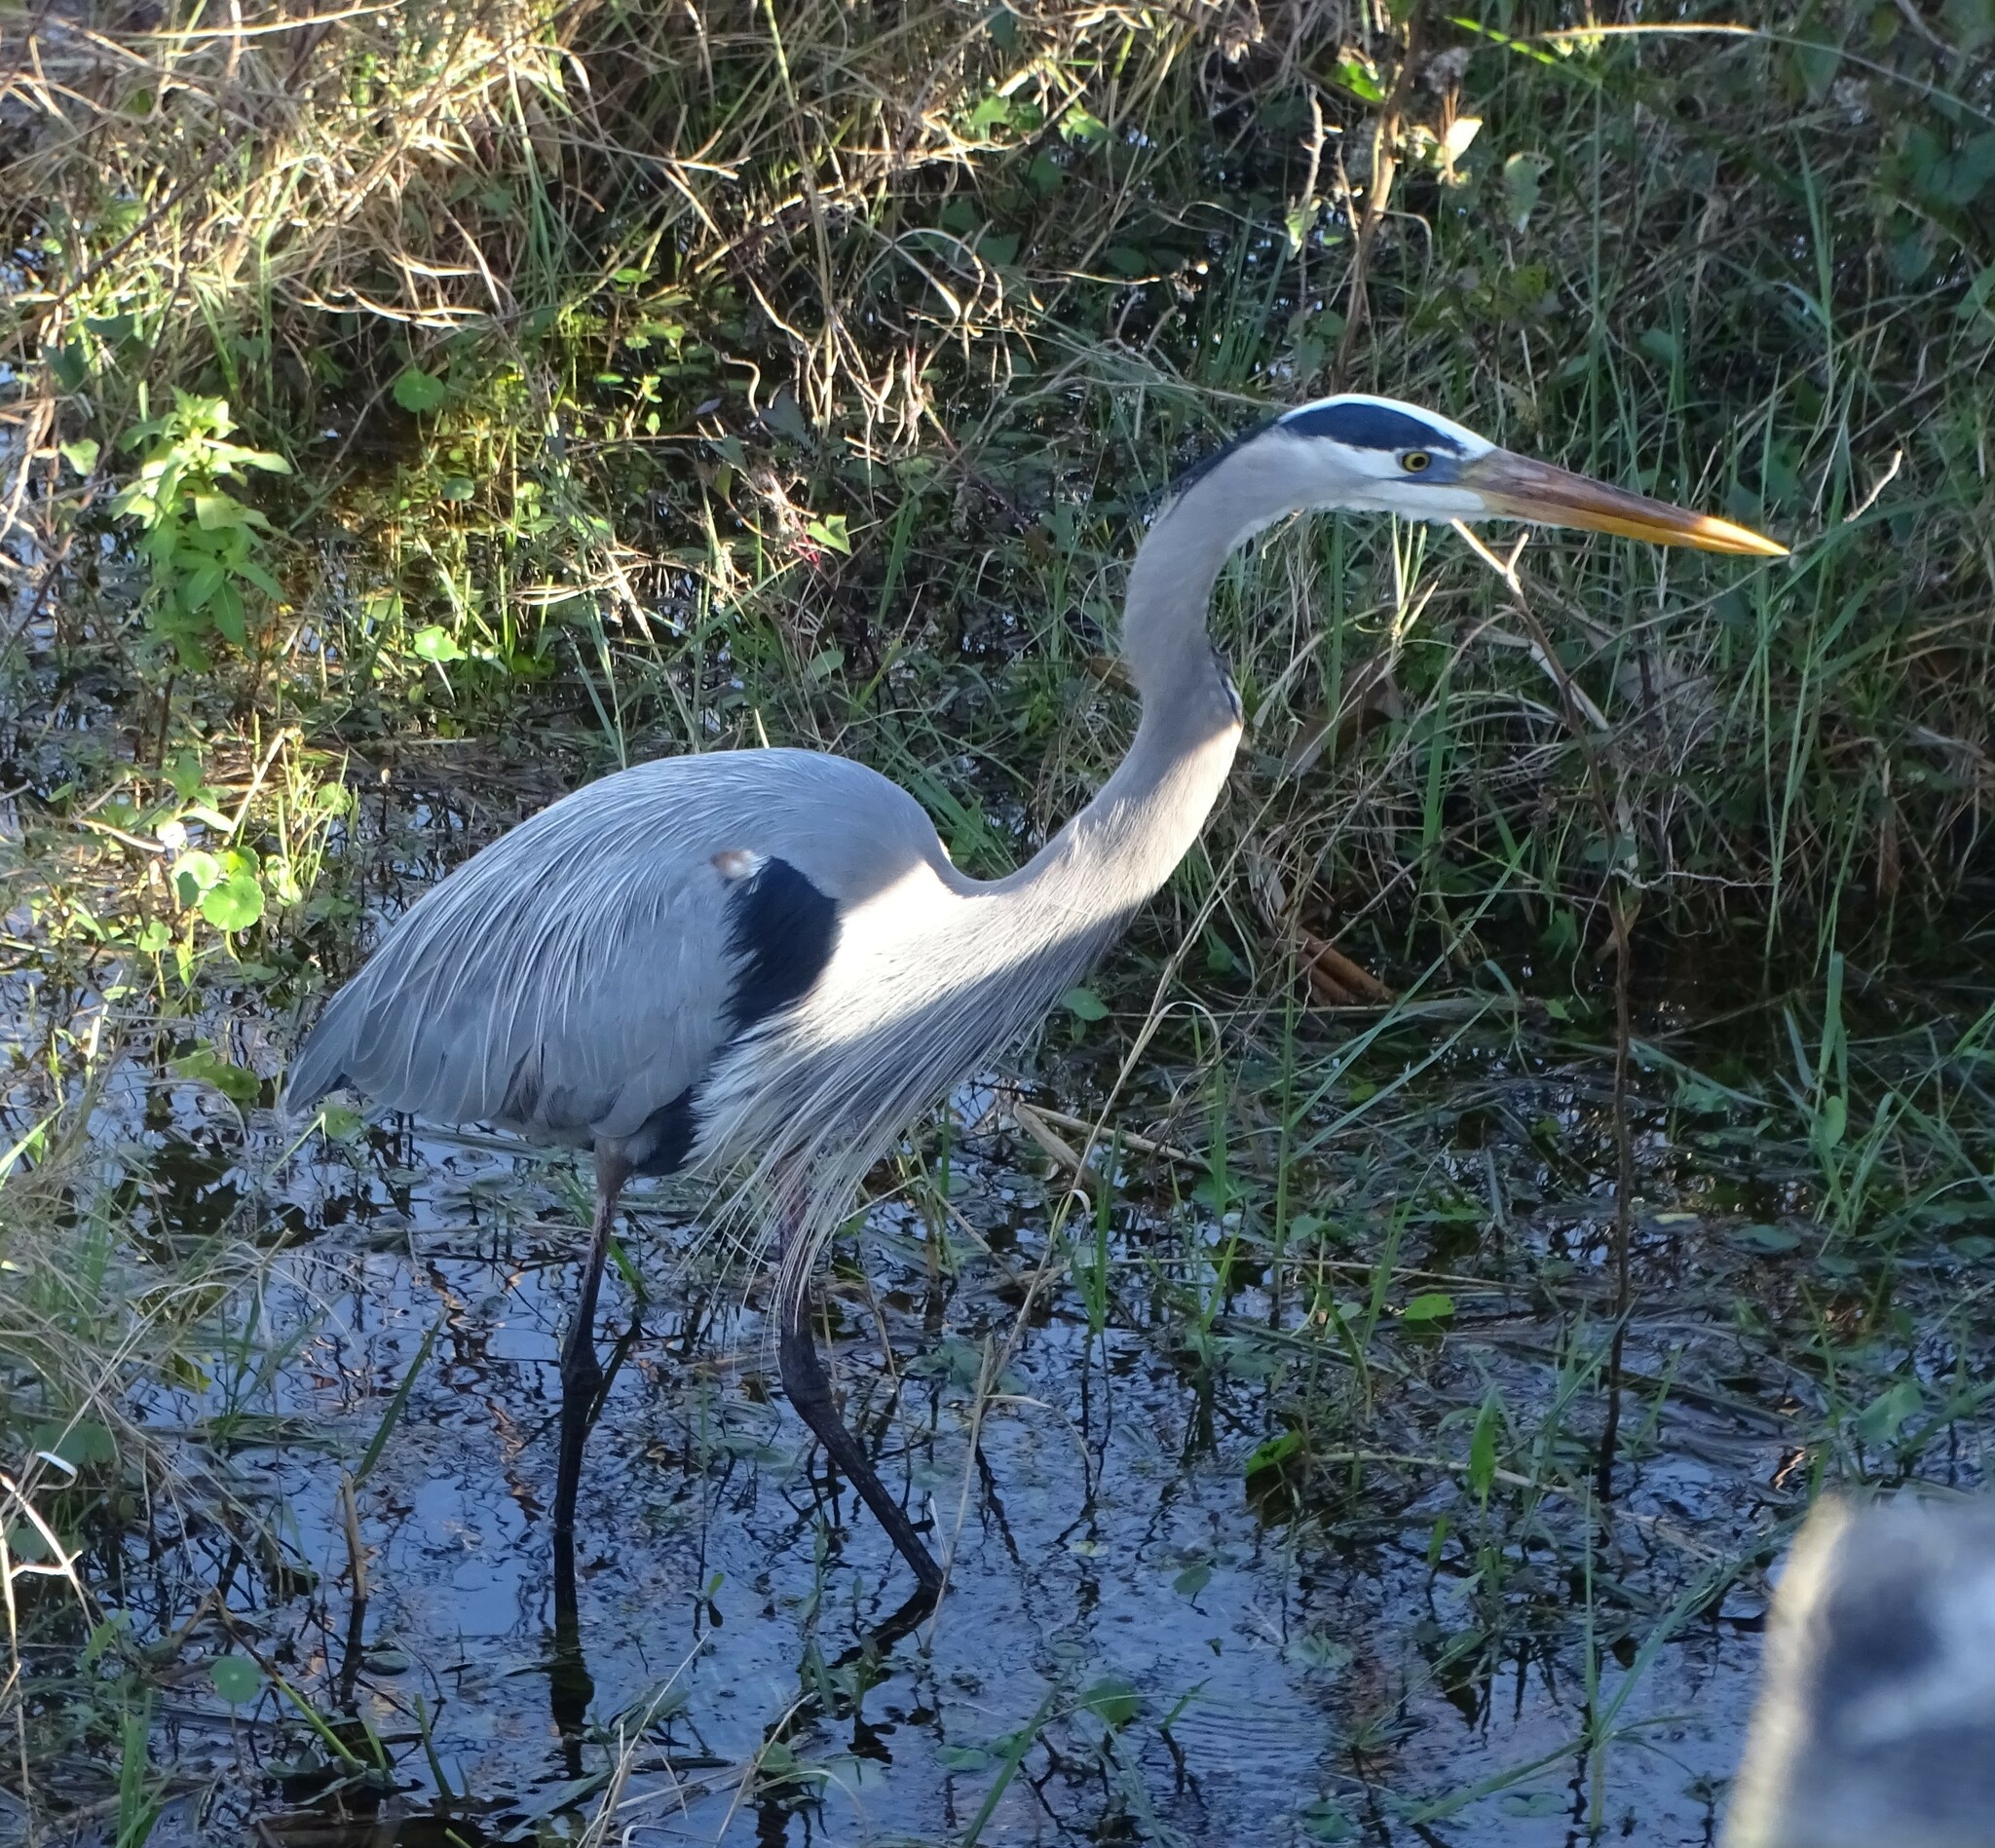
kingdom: Animalia
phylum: Chordata
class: Aves
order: Pelecaniformes
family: Ardeidae
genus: Ardea
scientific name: Ardea herodias
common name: Great blue heron
